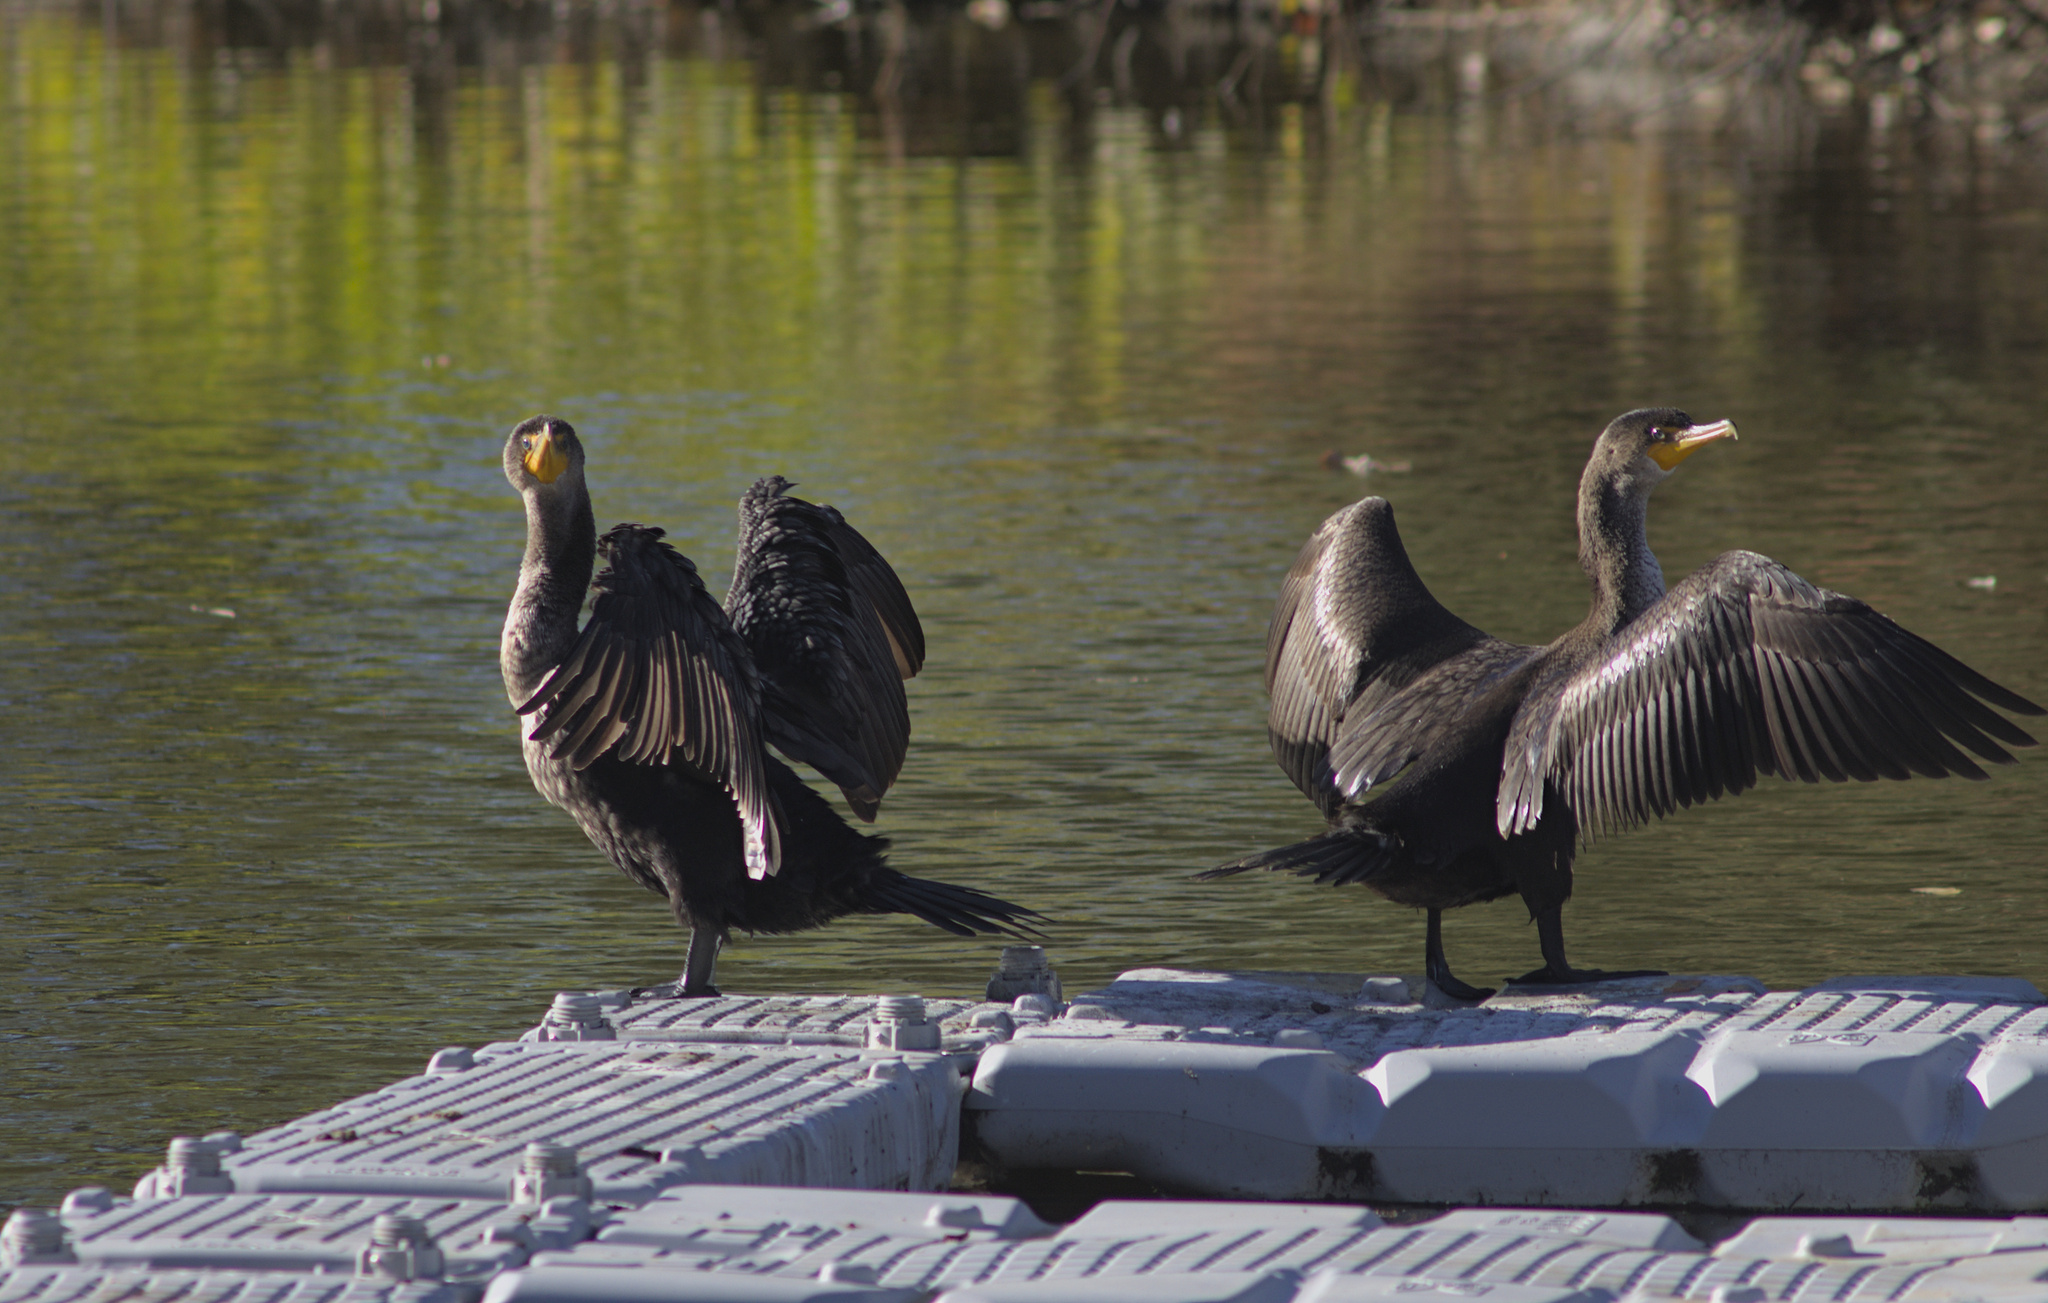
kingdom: Animalia
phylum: Chordata
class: Aves
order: Suliformes
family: Phalacrocoracidae
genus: Phalacrocorax
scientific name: Phalacrocorax auritus
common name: Double-crested cormorant
